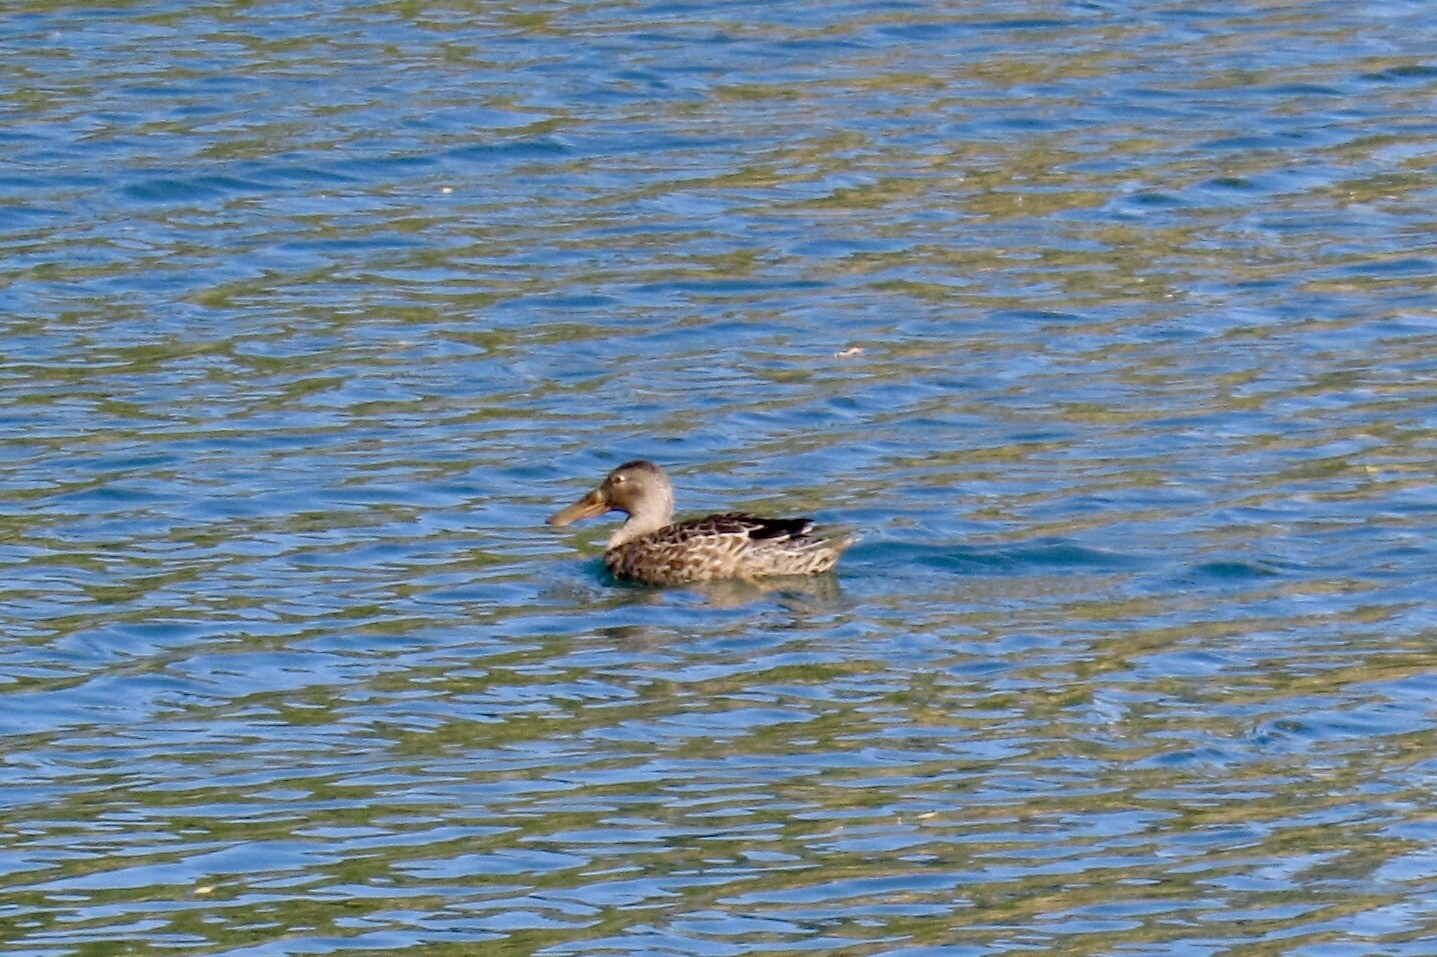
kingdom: Animalia
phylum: Chordata
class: Aves
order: Anseriformes
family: Anatidae
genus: Spatula
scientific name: Spatula clypeata
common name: Northern shoveler
